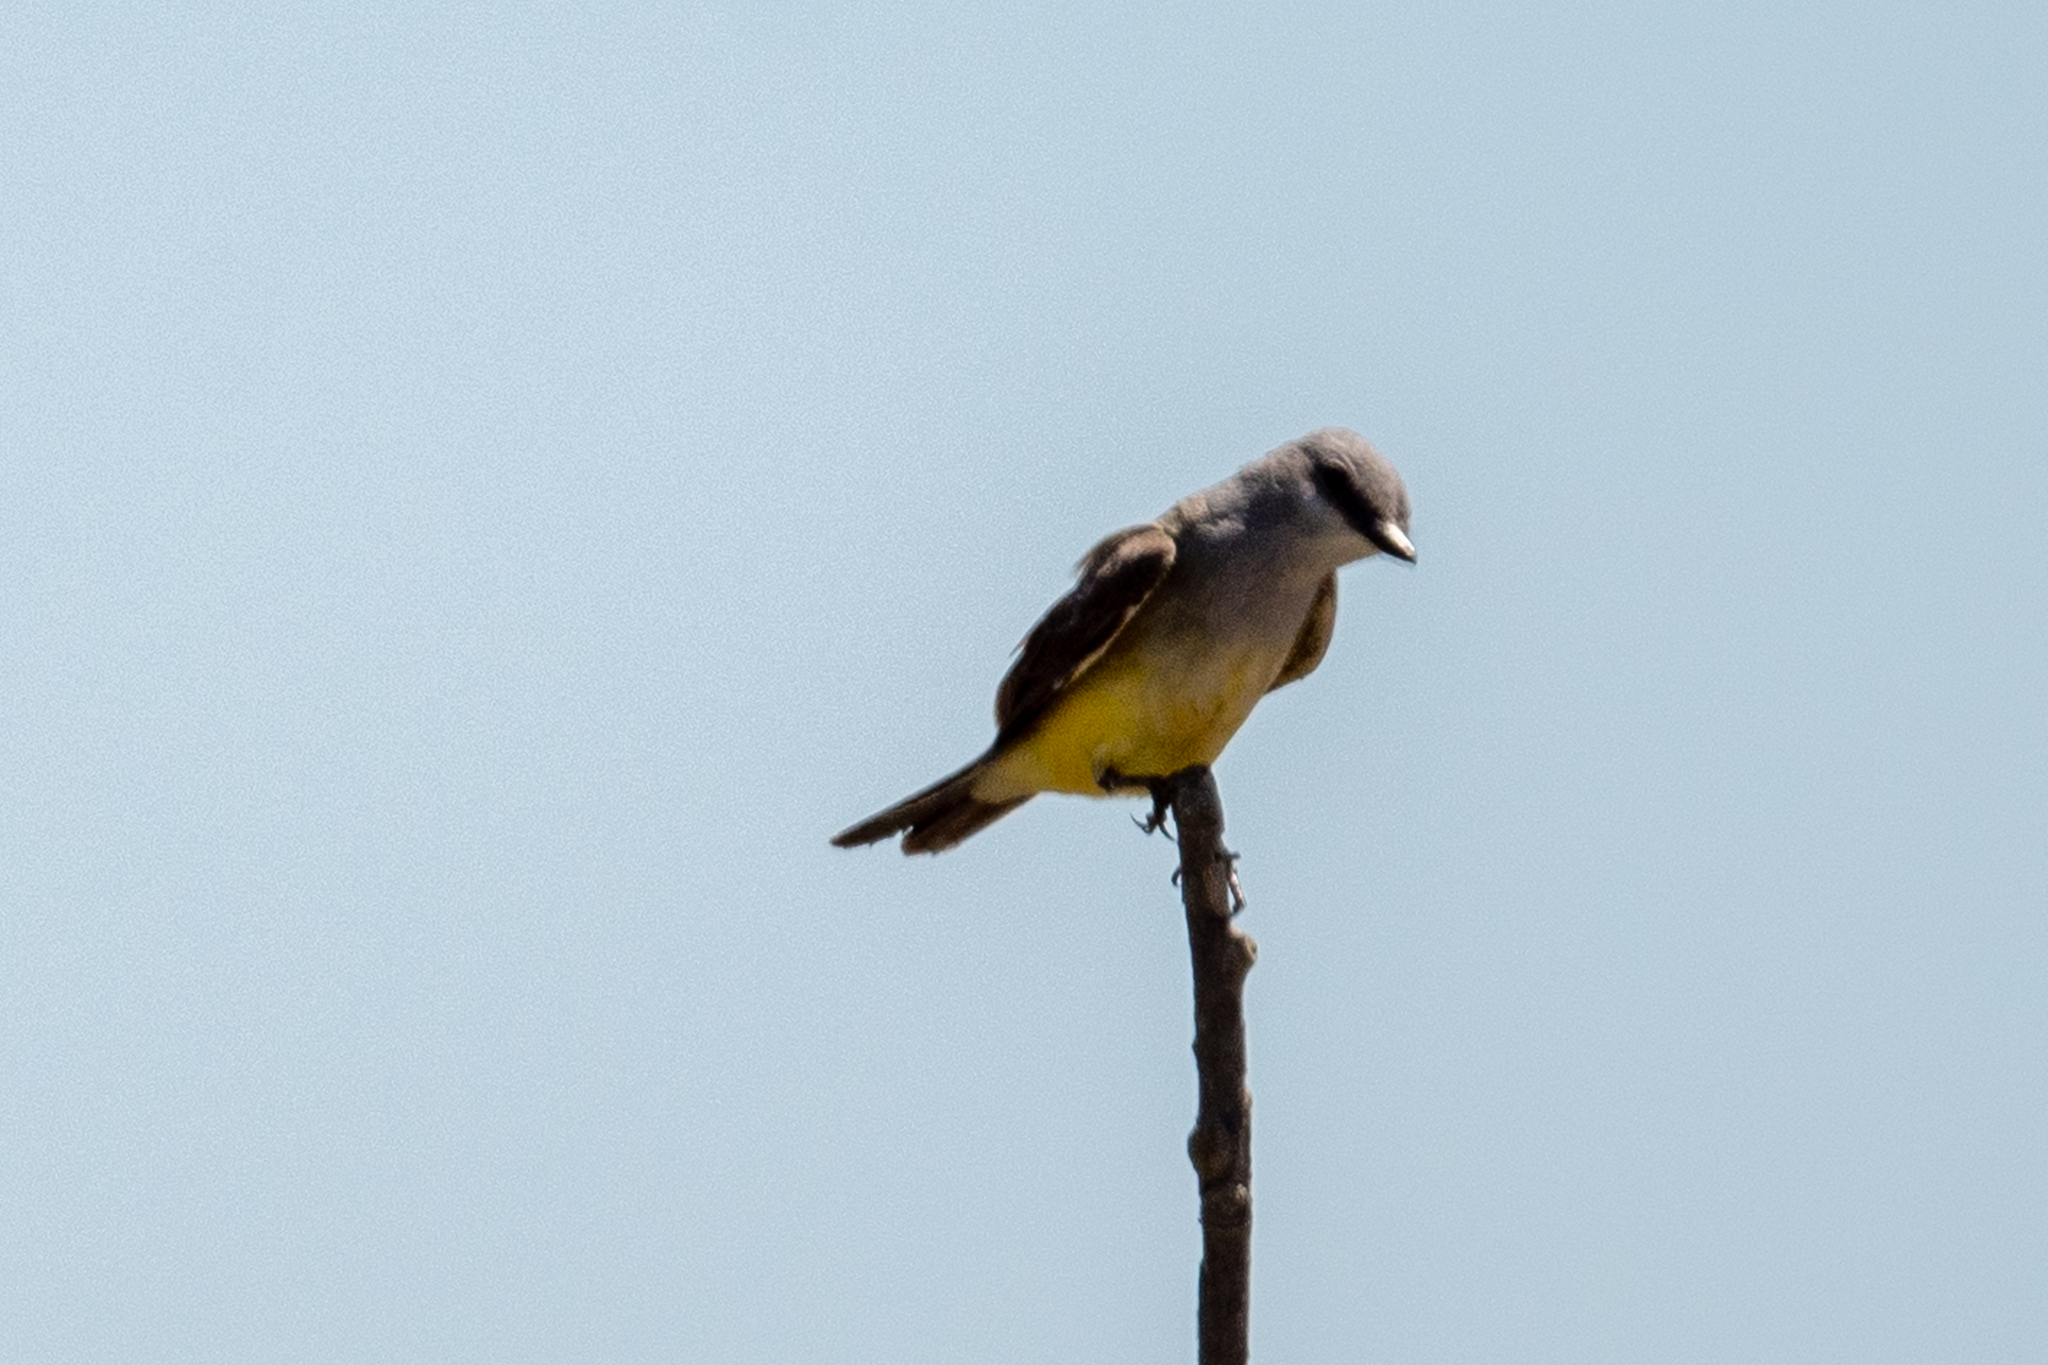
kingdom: Animalia
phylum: Chordata
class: Aves
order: Passeriformes
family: Tyrannidae
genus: Tyrannus
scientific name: Tyrannus verticalis
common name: Western kingbird
